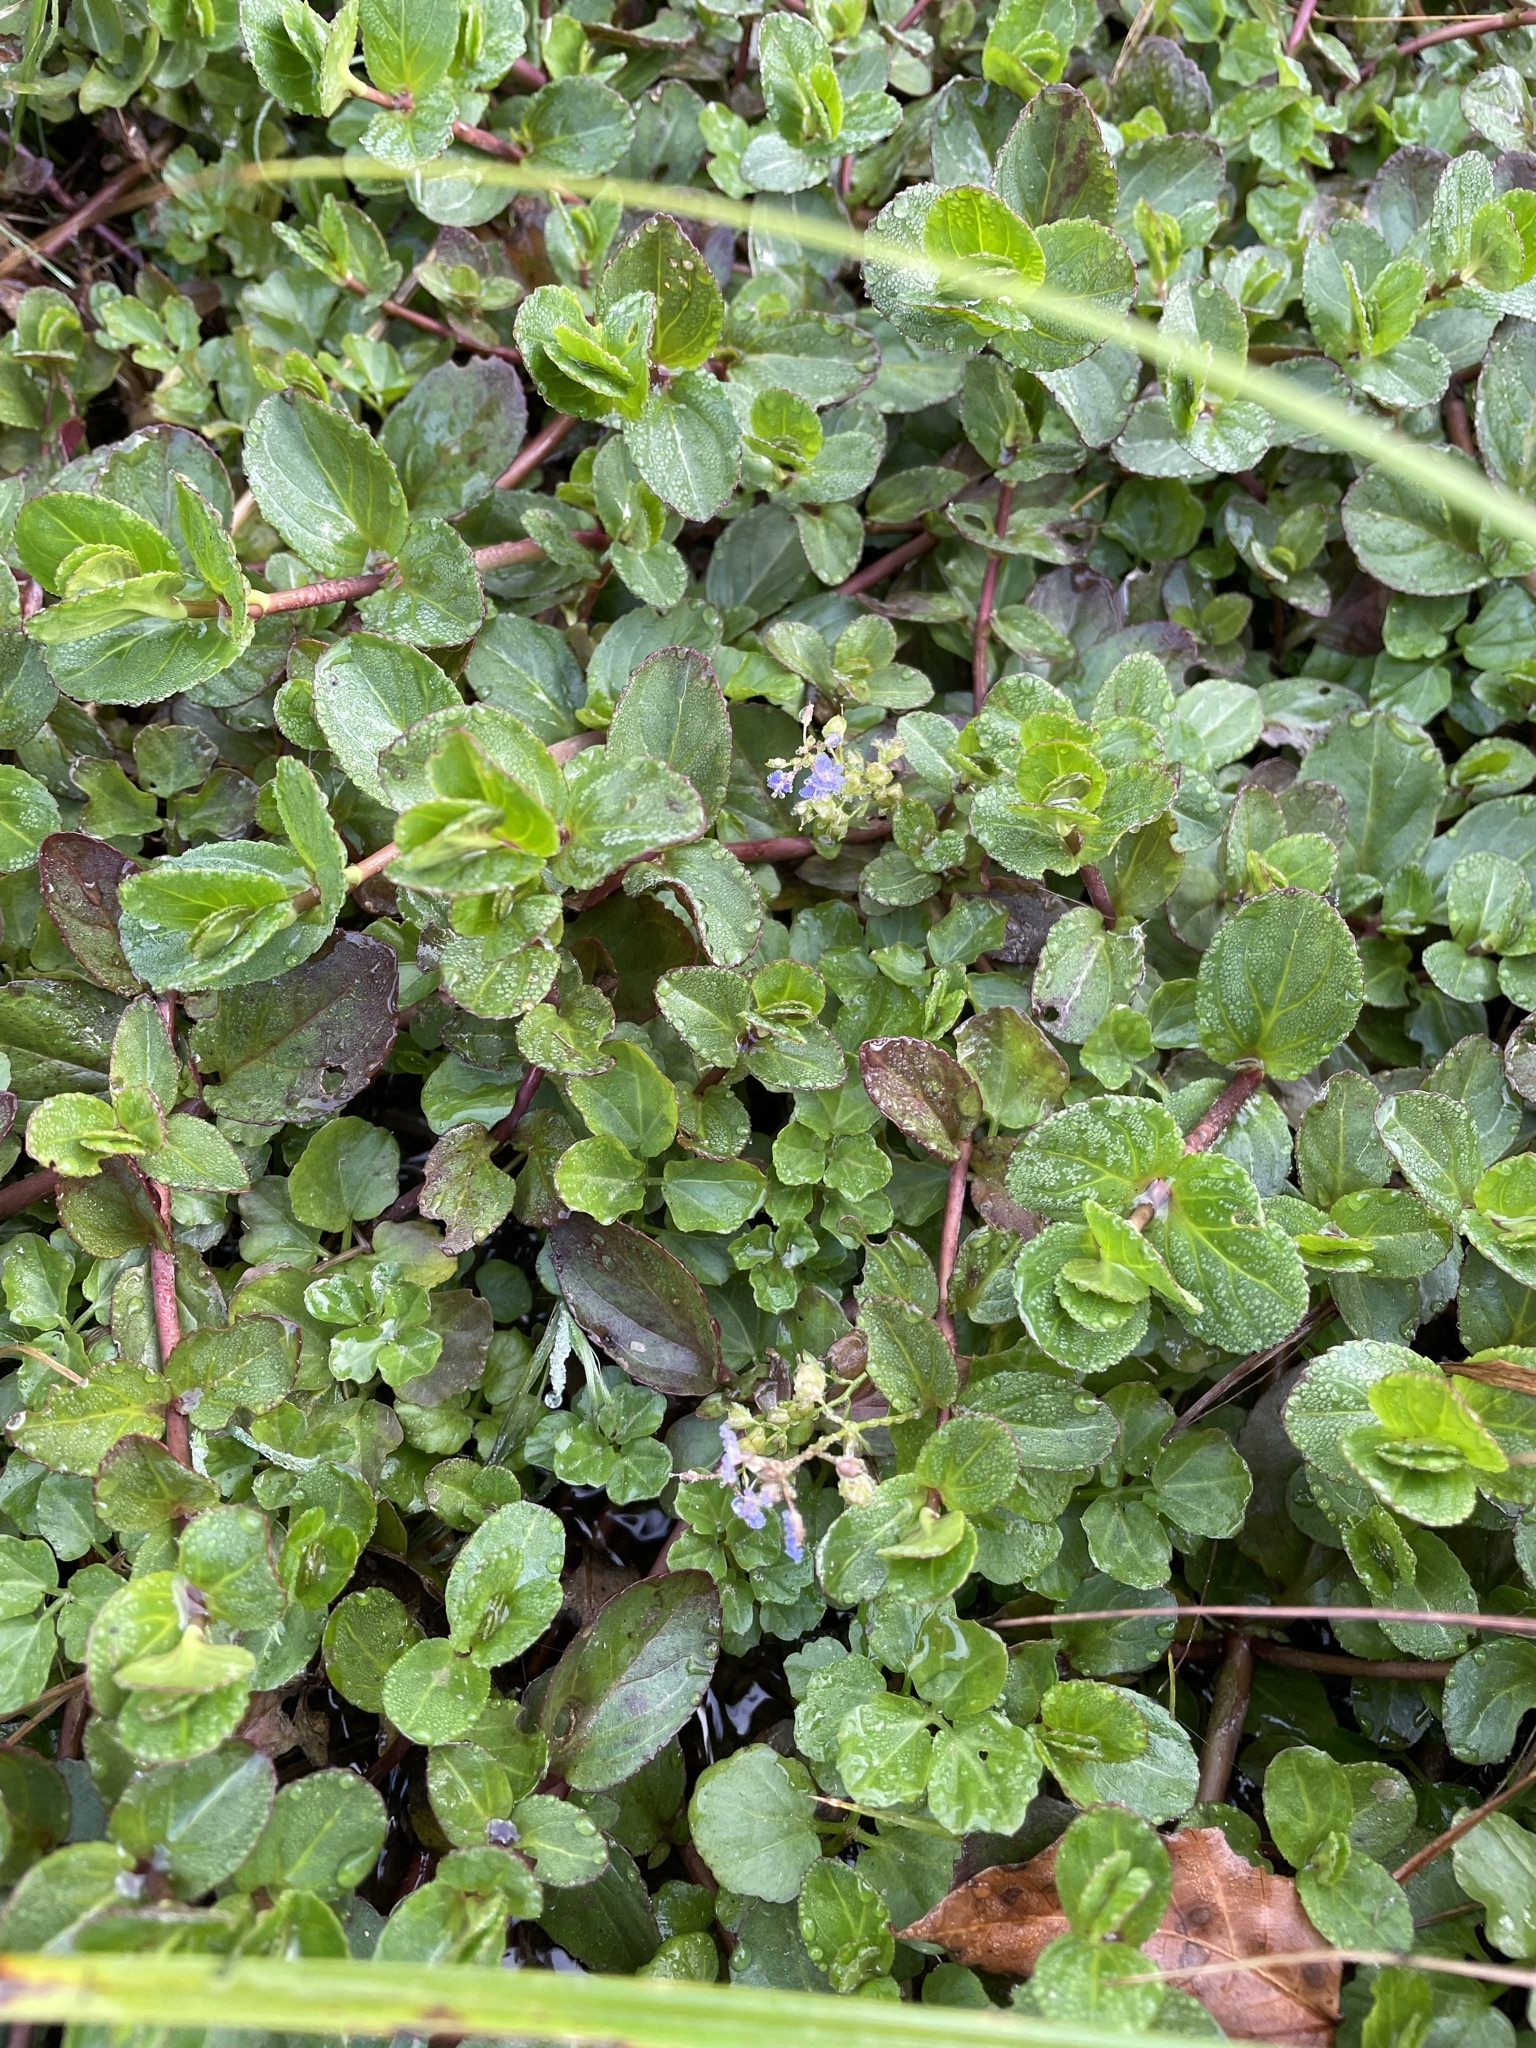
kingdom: Plantae
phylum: Tracheophyta
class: Magnoliopsida
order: Lamiales
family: Plantaginaceae
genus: Veronica
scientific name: Veronica beccabunga
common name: Brooklime
